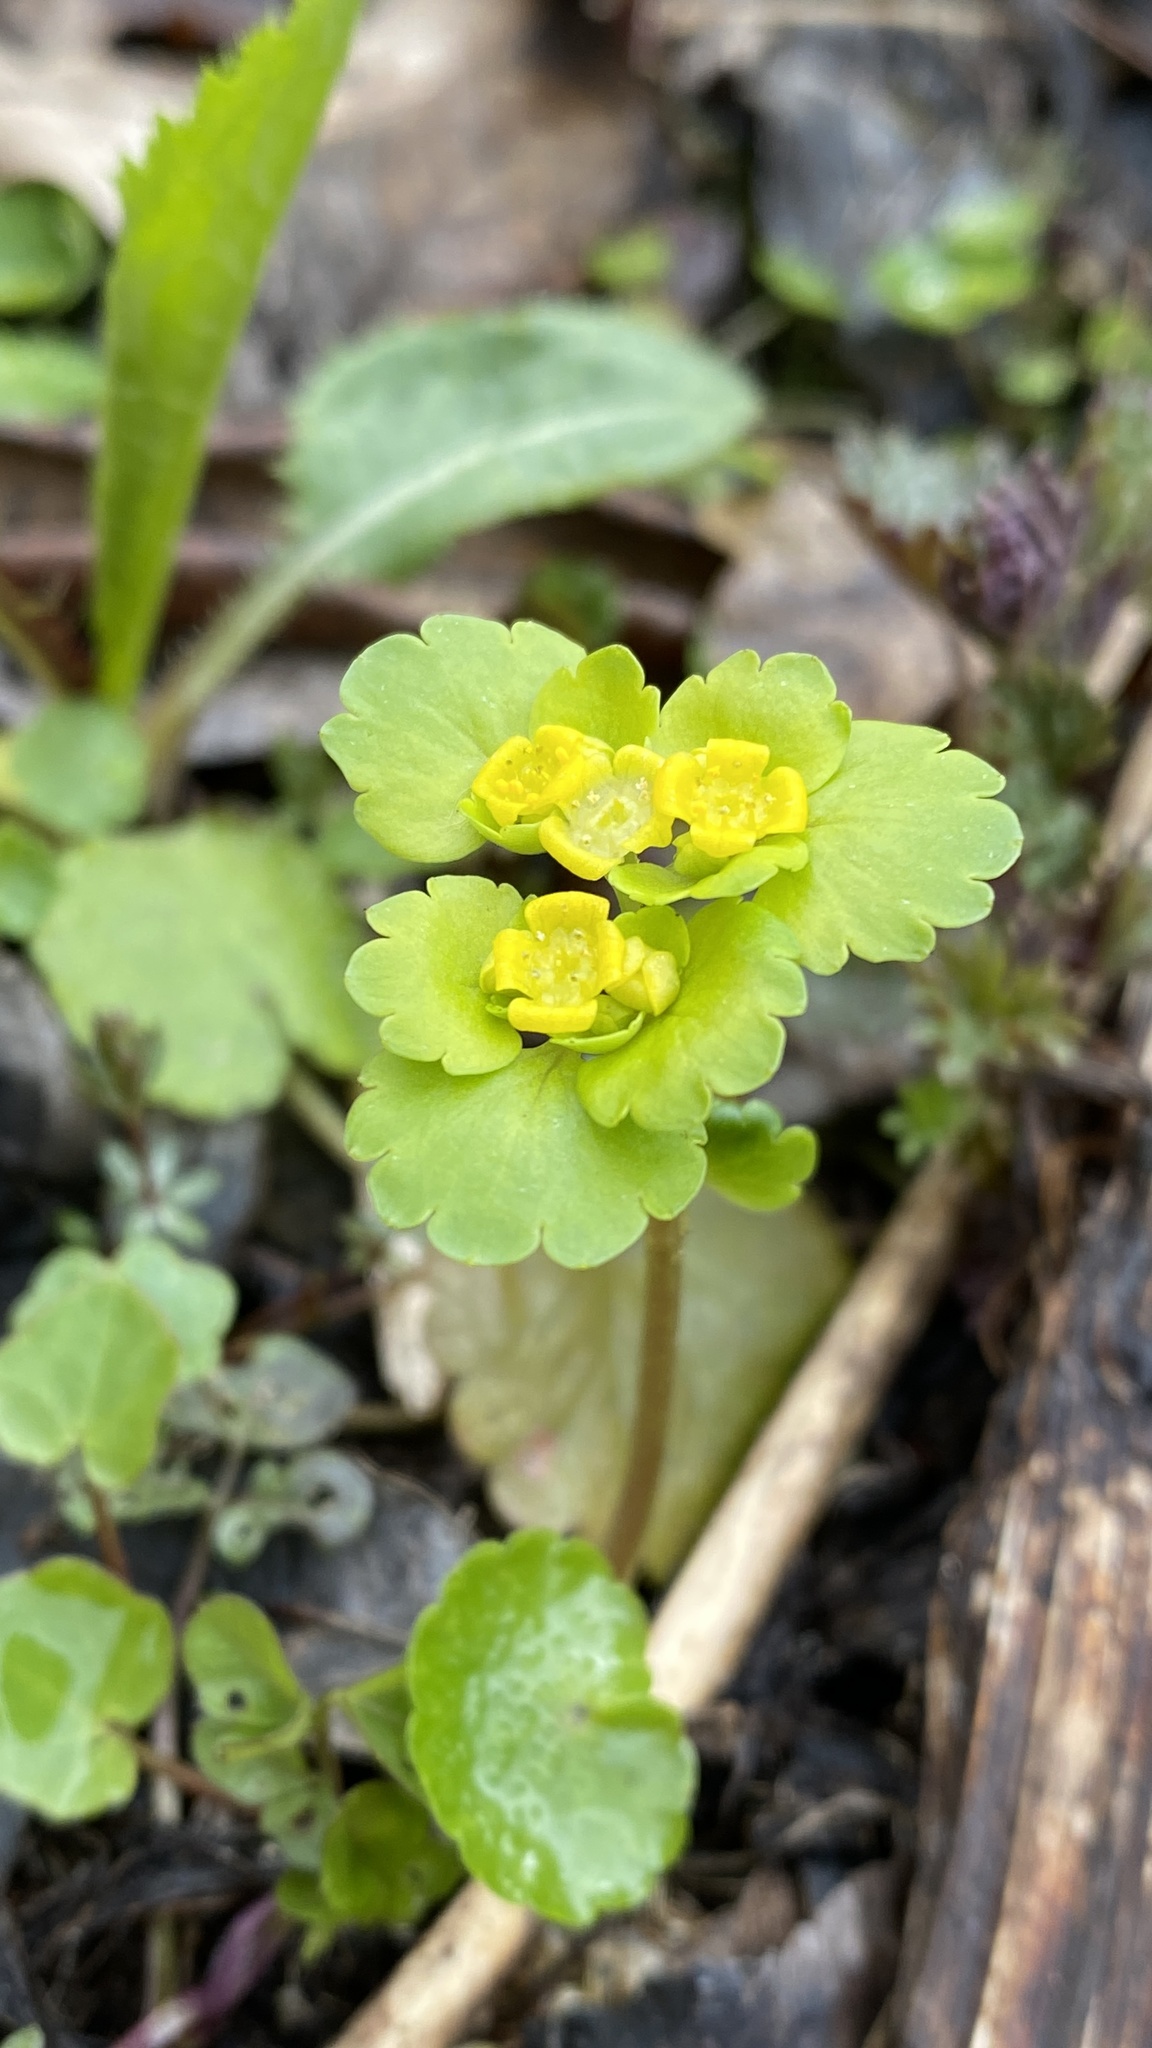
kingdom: Plantae
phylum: Tracheophyta
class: Magnoliopsida
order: Saxifragales
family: Saxifragaceae
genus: Chrysosplenium
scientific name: Chrysosplenium alternifolium
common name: Alternate-leaved golden-saxifrage
